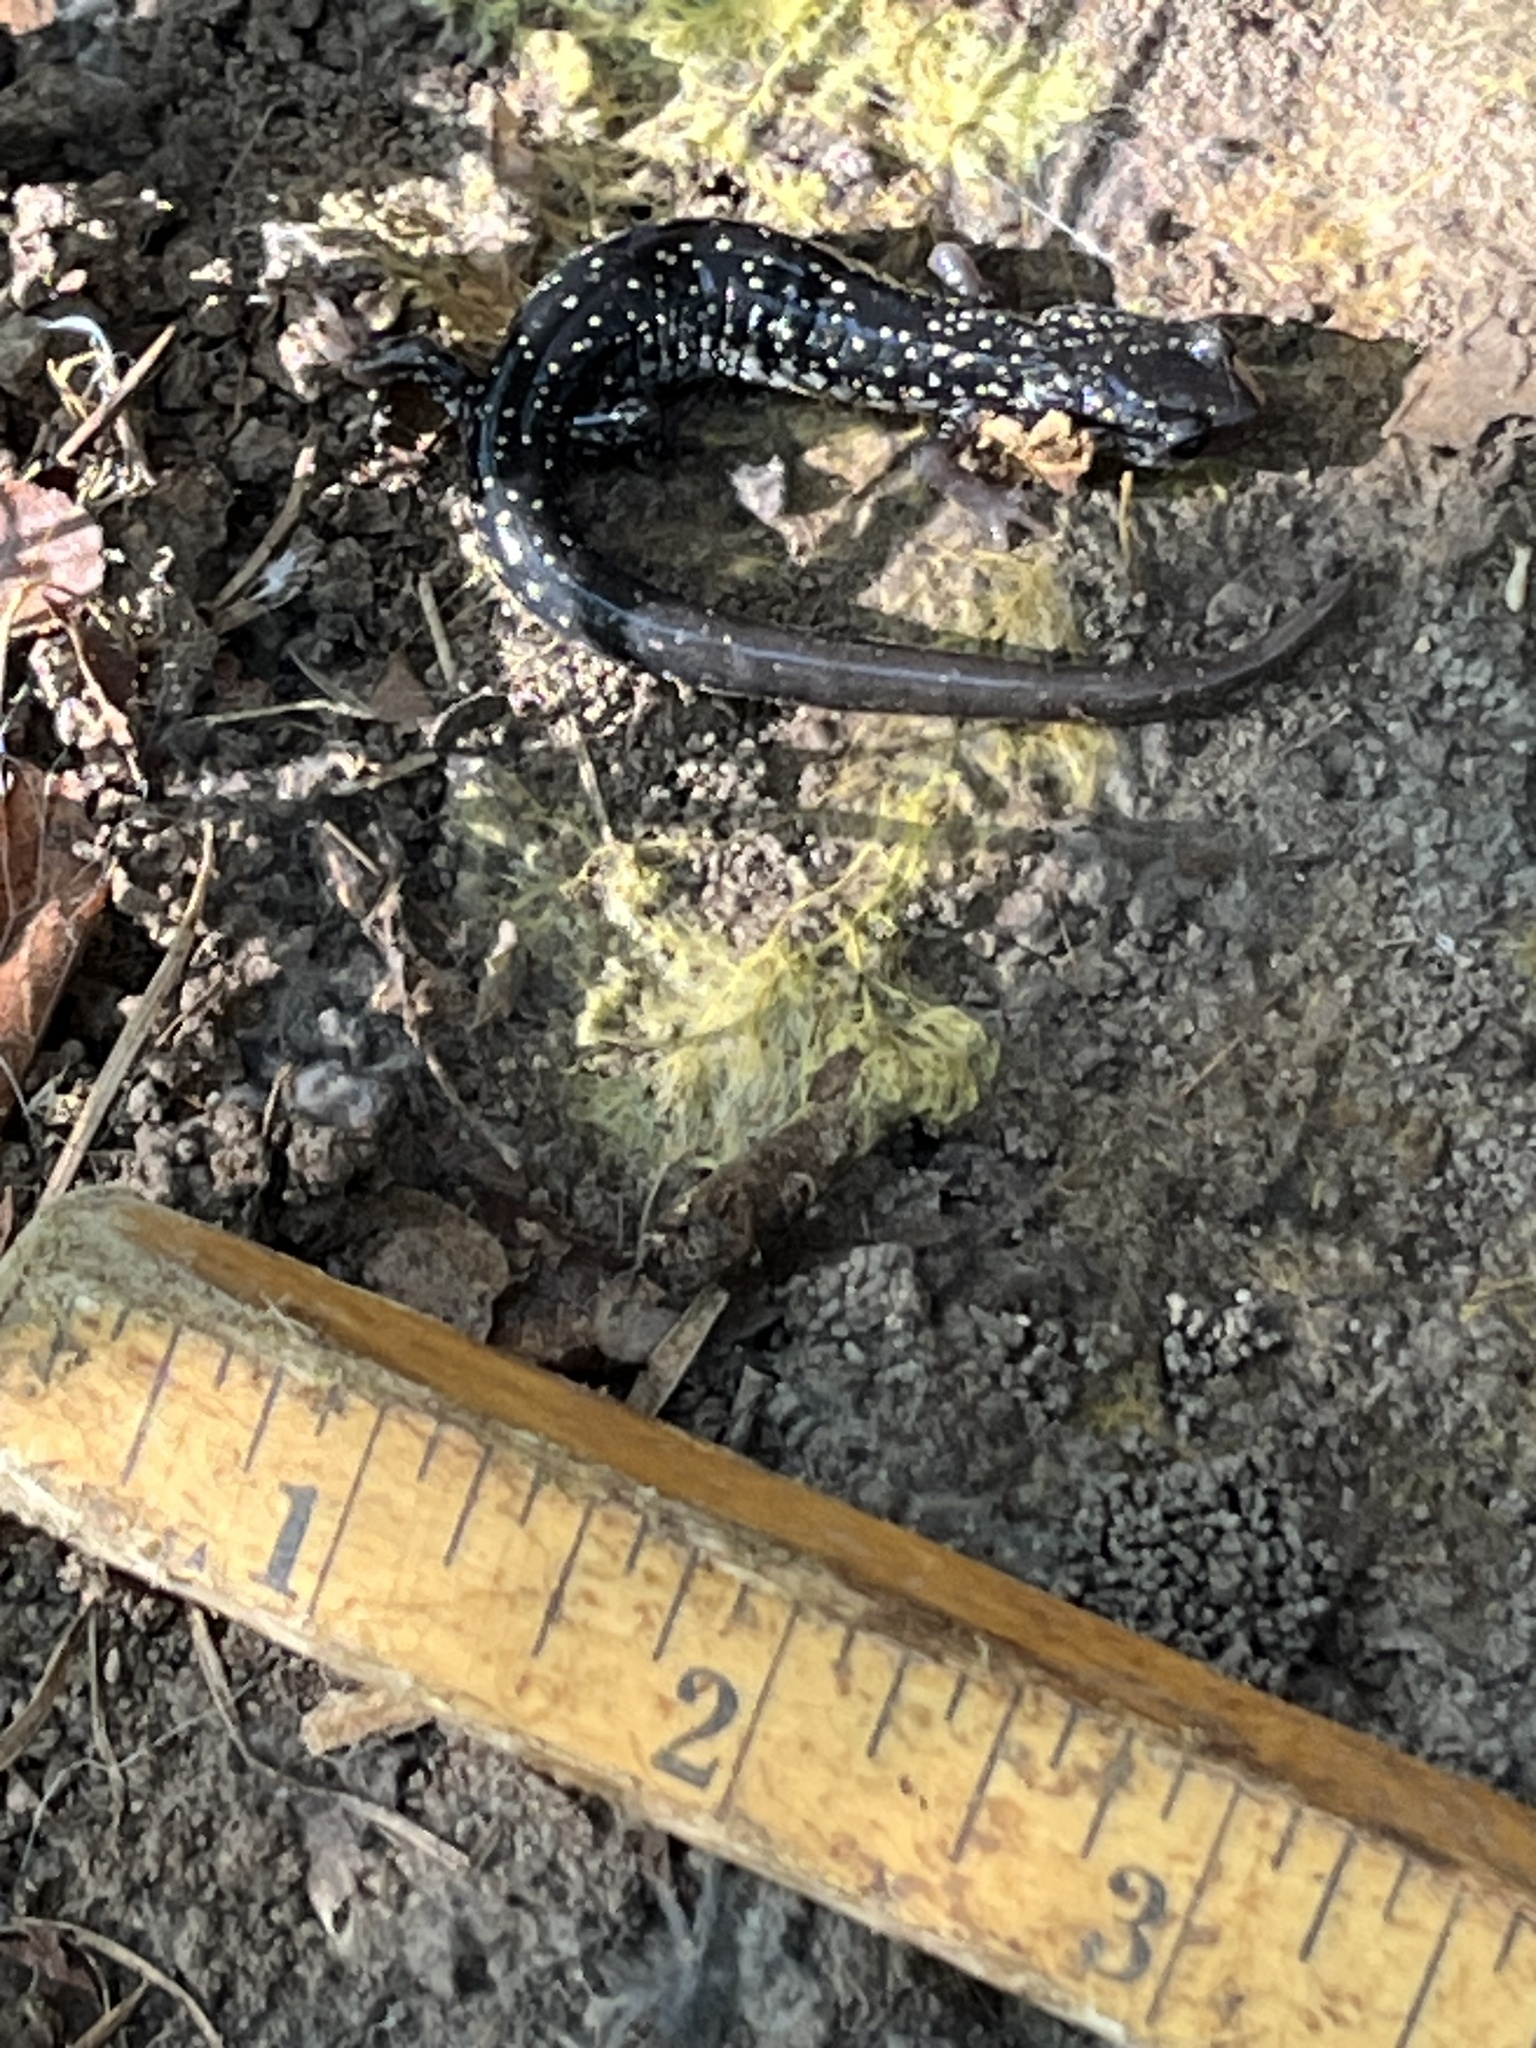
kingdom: Animalia
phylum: Chordata
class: Amphibia
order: Caudata
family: Plethodontidae
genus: Plethodon
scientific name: Plethodon glutinosus
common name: Northern slimy salamander
